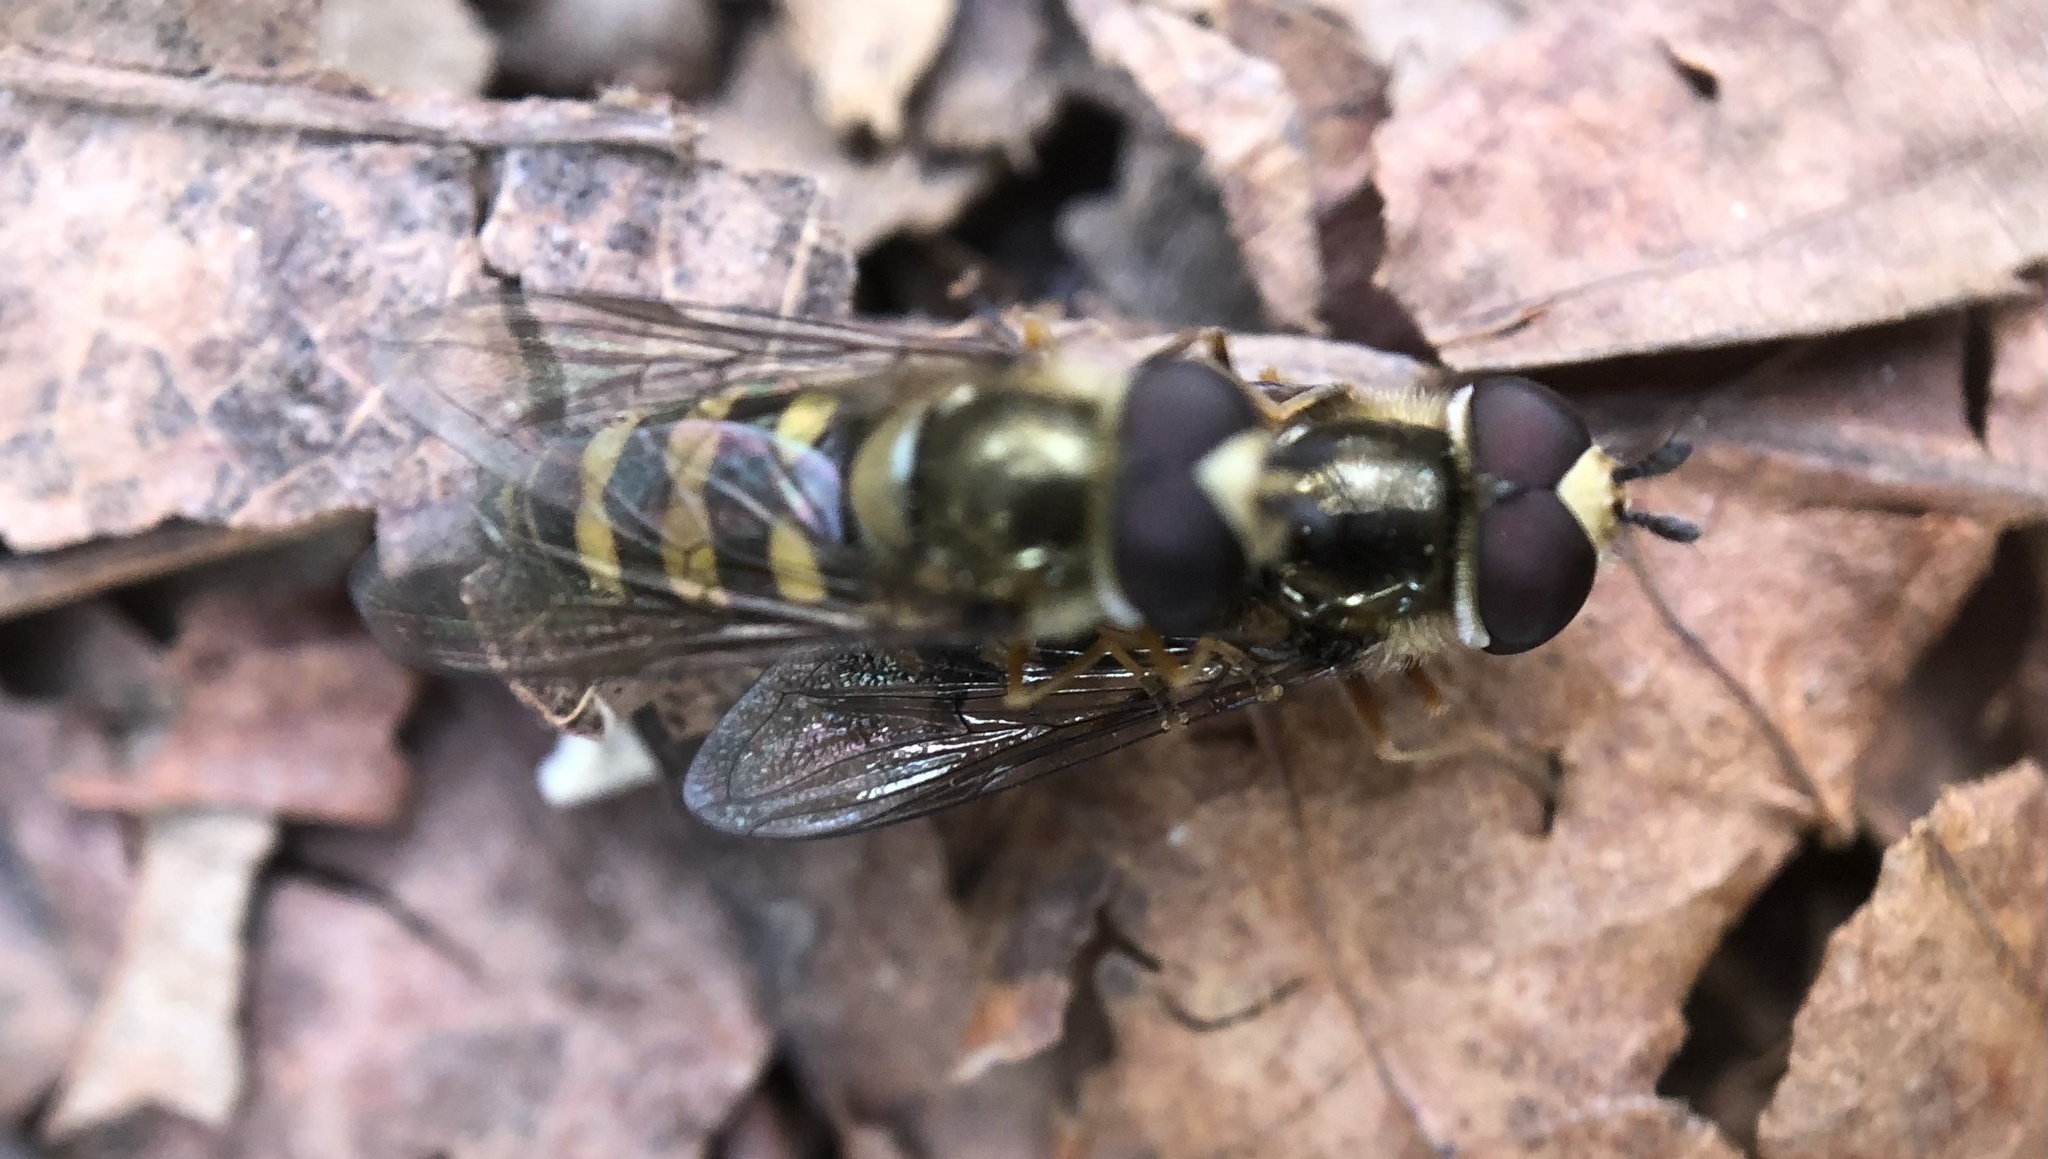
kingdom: Animalia
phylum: Arthropoda
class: Insecta
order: Diptera
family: Syrphidae
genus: Eupeodes
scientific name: Eupeodes
